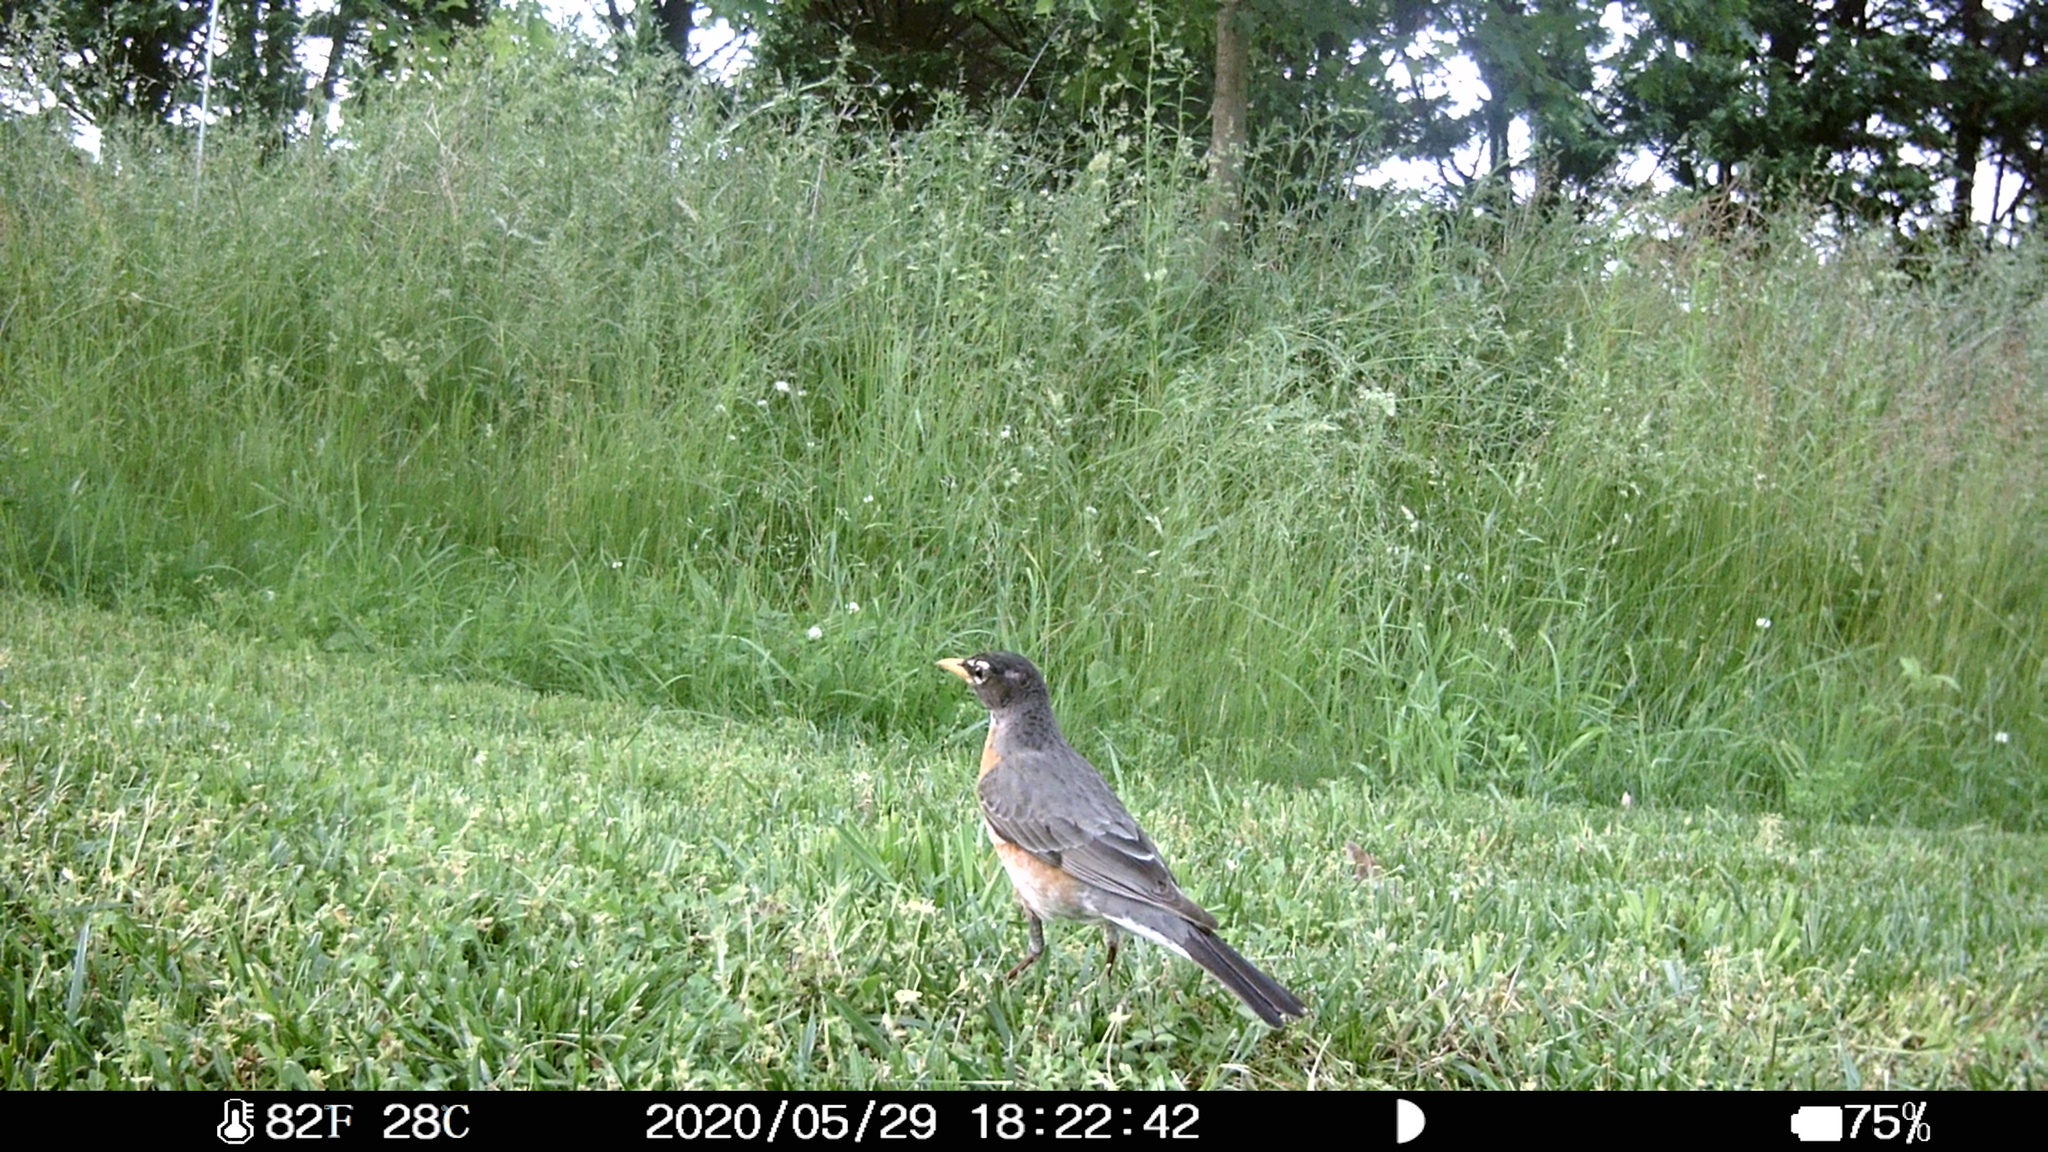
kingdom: Animalia
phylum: Chordata
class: Aves
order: Passeriformes
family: Turdidae
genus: Turdus
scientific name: Turdus migratorius
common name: American robin
